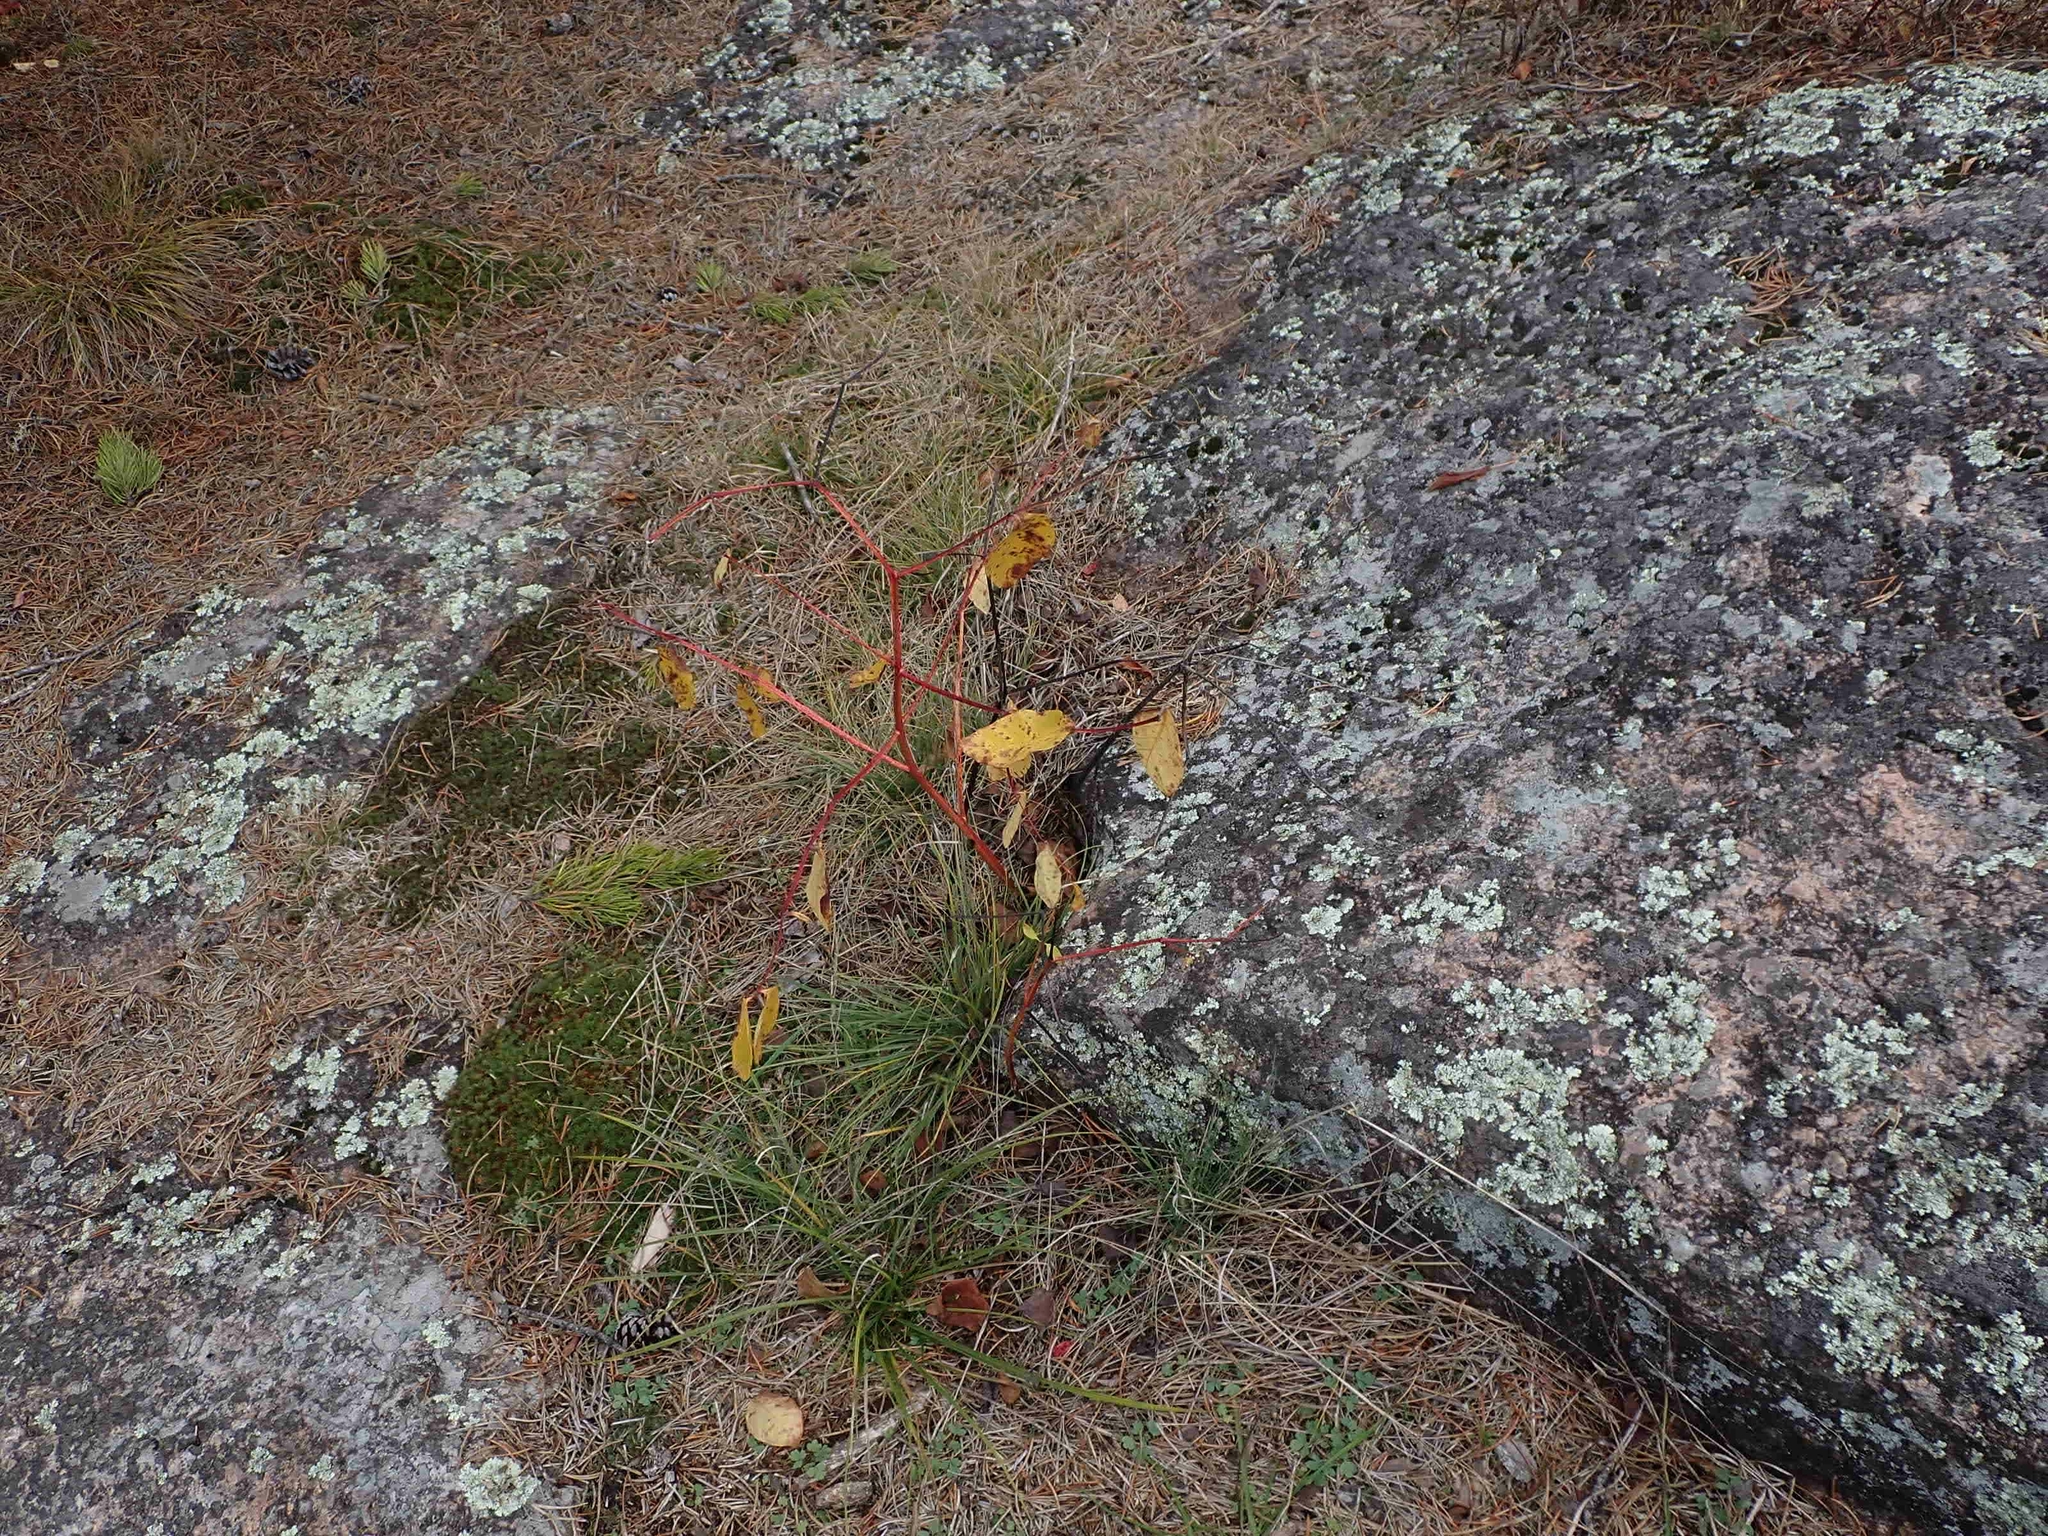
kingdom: Plantae
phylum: Tracheophyta
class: Magnoliopsida
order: Gentianales
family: Apocynaceae
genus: Apocynum
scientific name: Apocynum androsaemifolium
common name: Spreading dogbane
